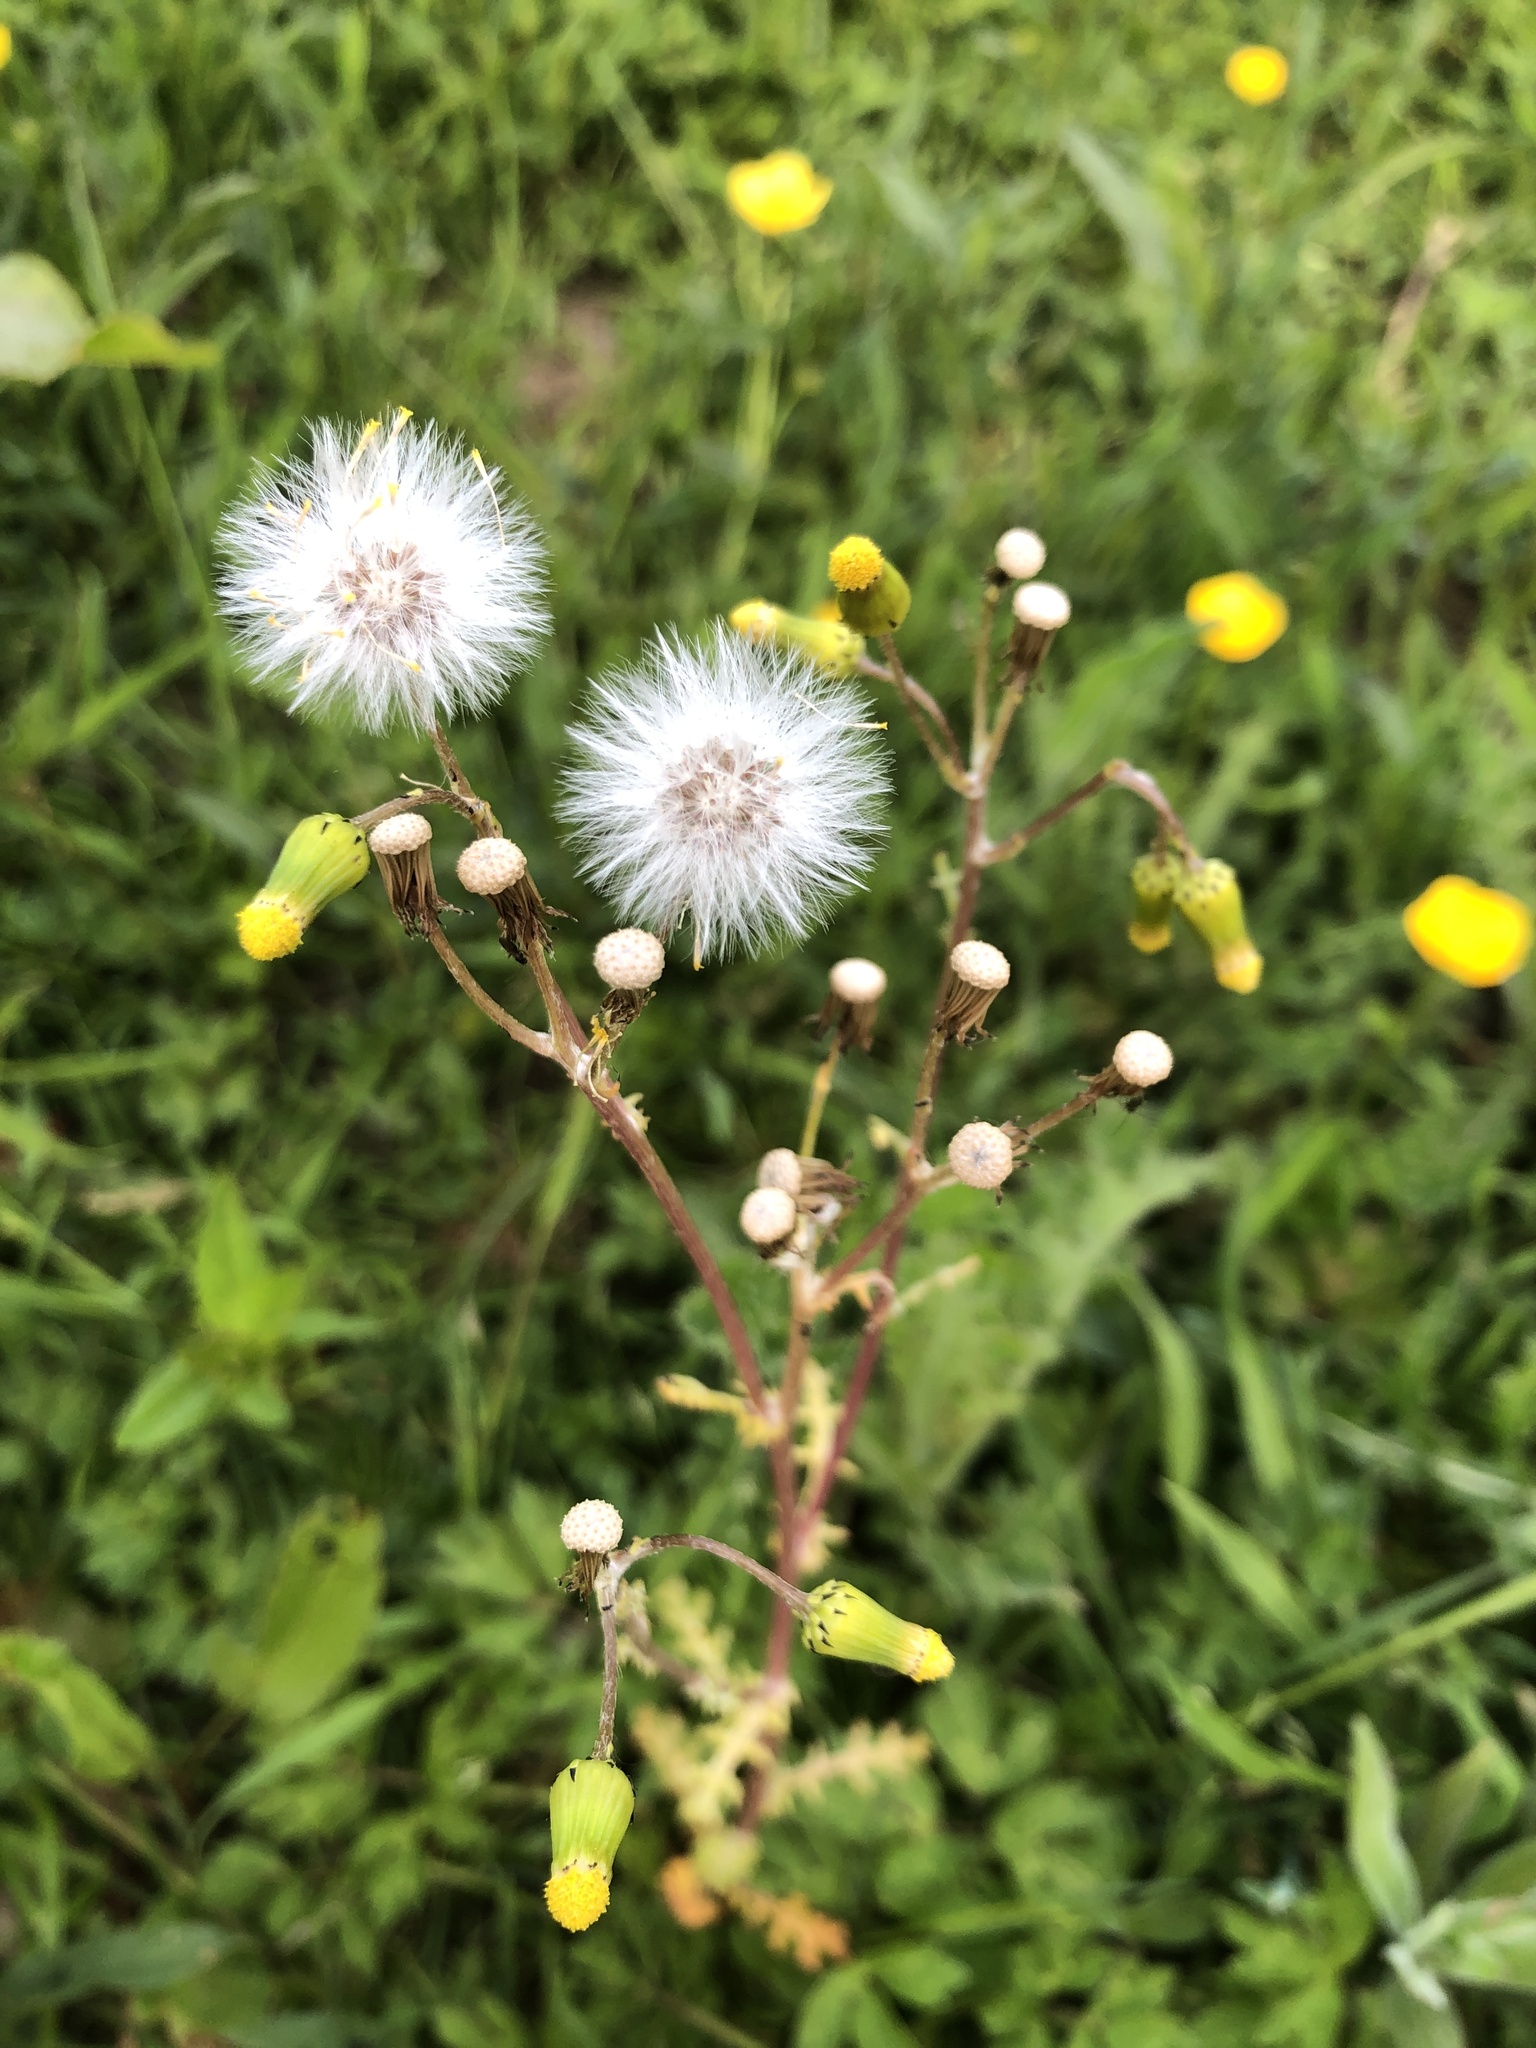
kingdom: Plantae
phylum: Tracheophyta
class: Magnoliopsida
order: Asterales
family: Asteraceae
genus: Senecio
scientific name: Senecio vulgaris
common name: Old-man-in-the-spring
